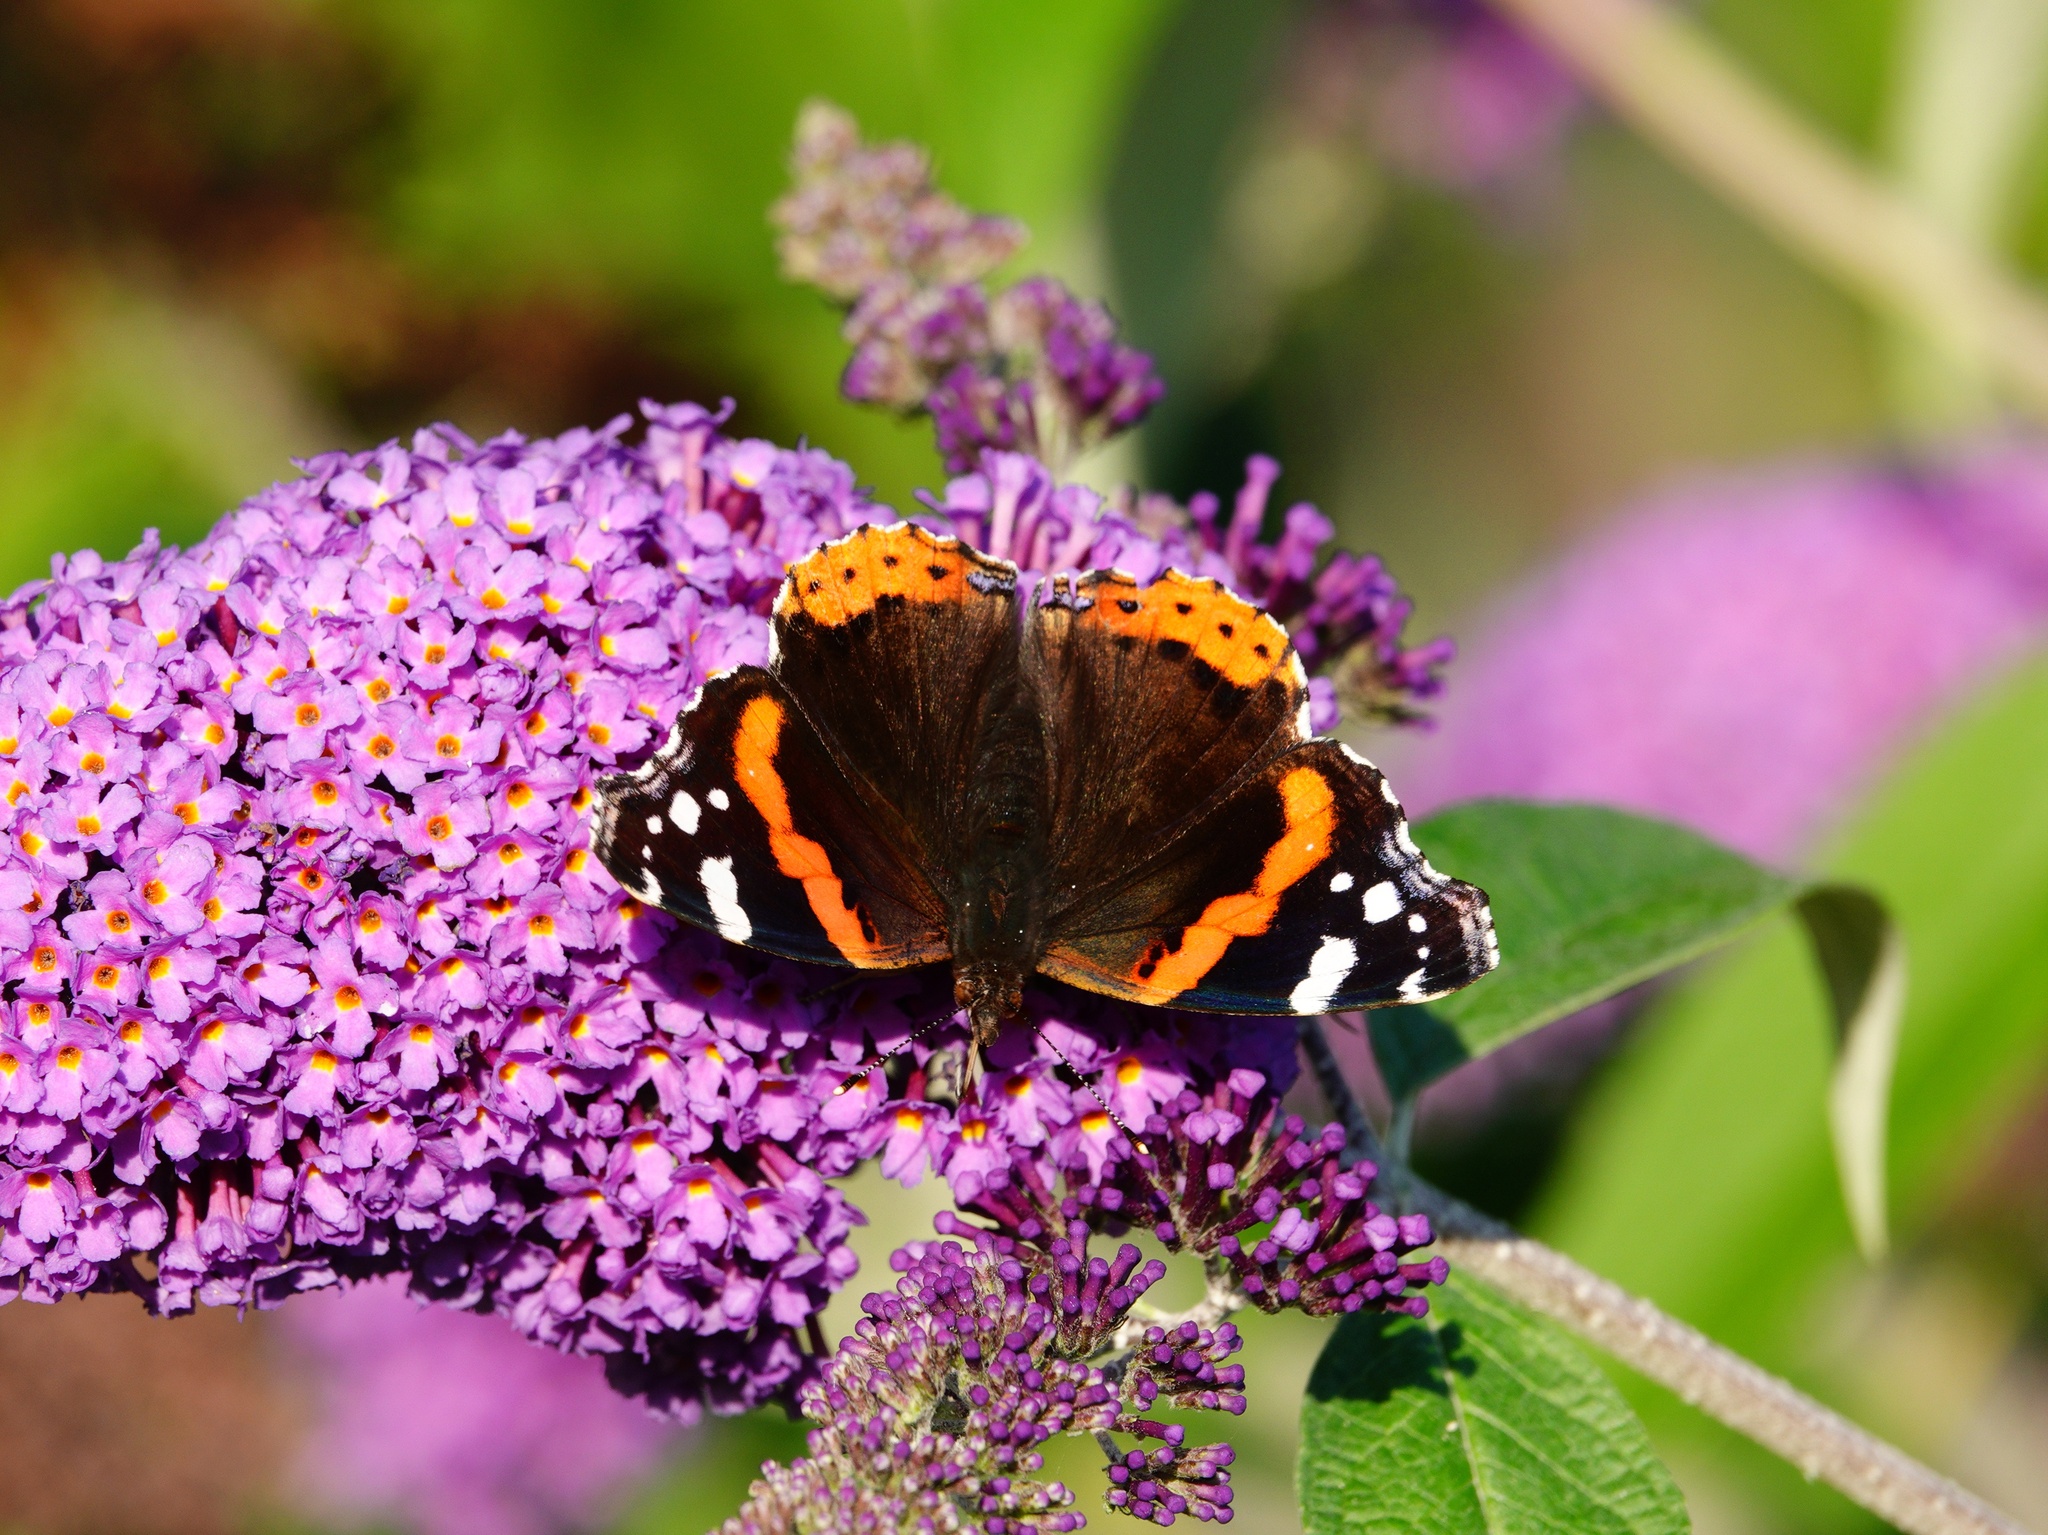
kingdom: Animalia
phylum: Arthropoda
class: Insecta
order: Lepidoptera
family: Nymphalidae
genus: Vanessa
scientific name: Vanessa atalanta
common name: Red admiral
